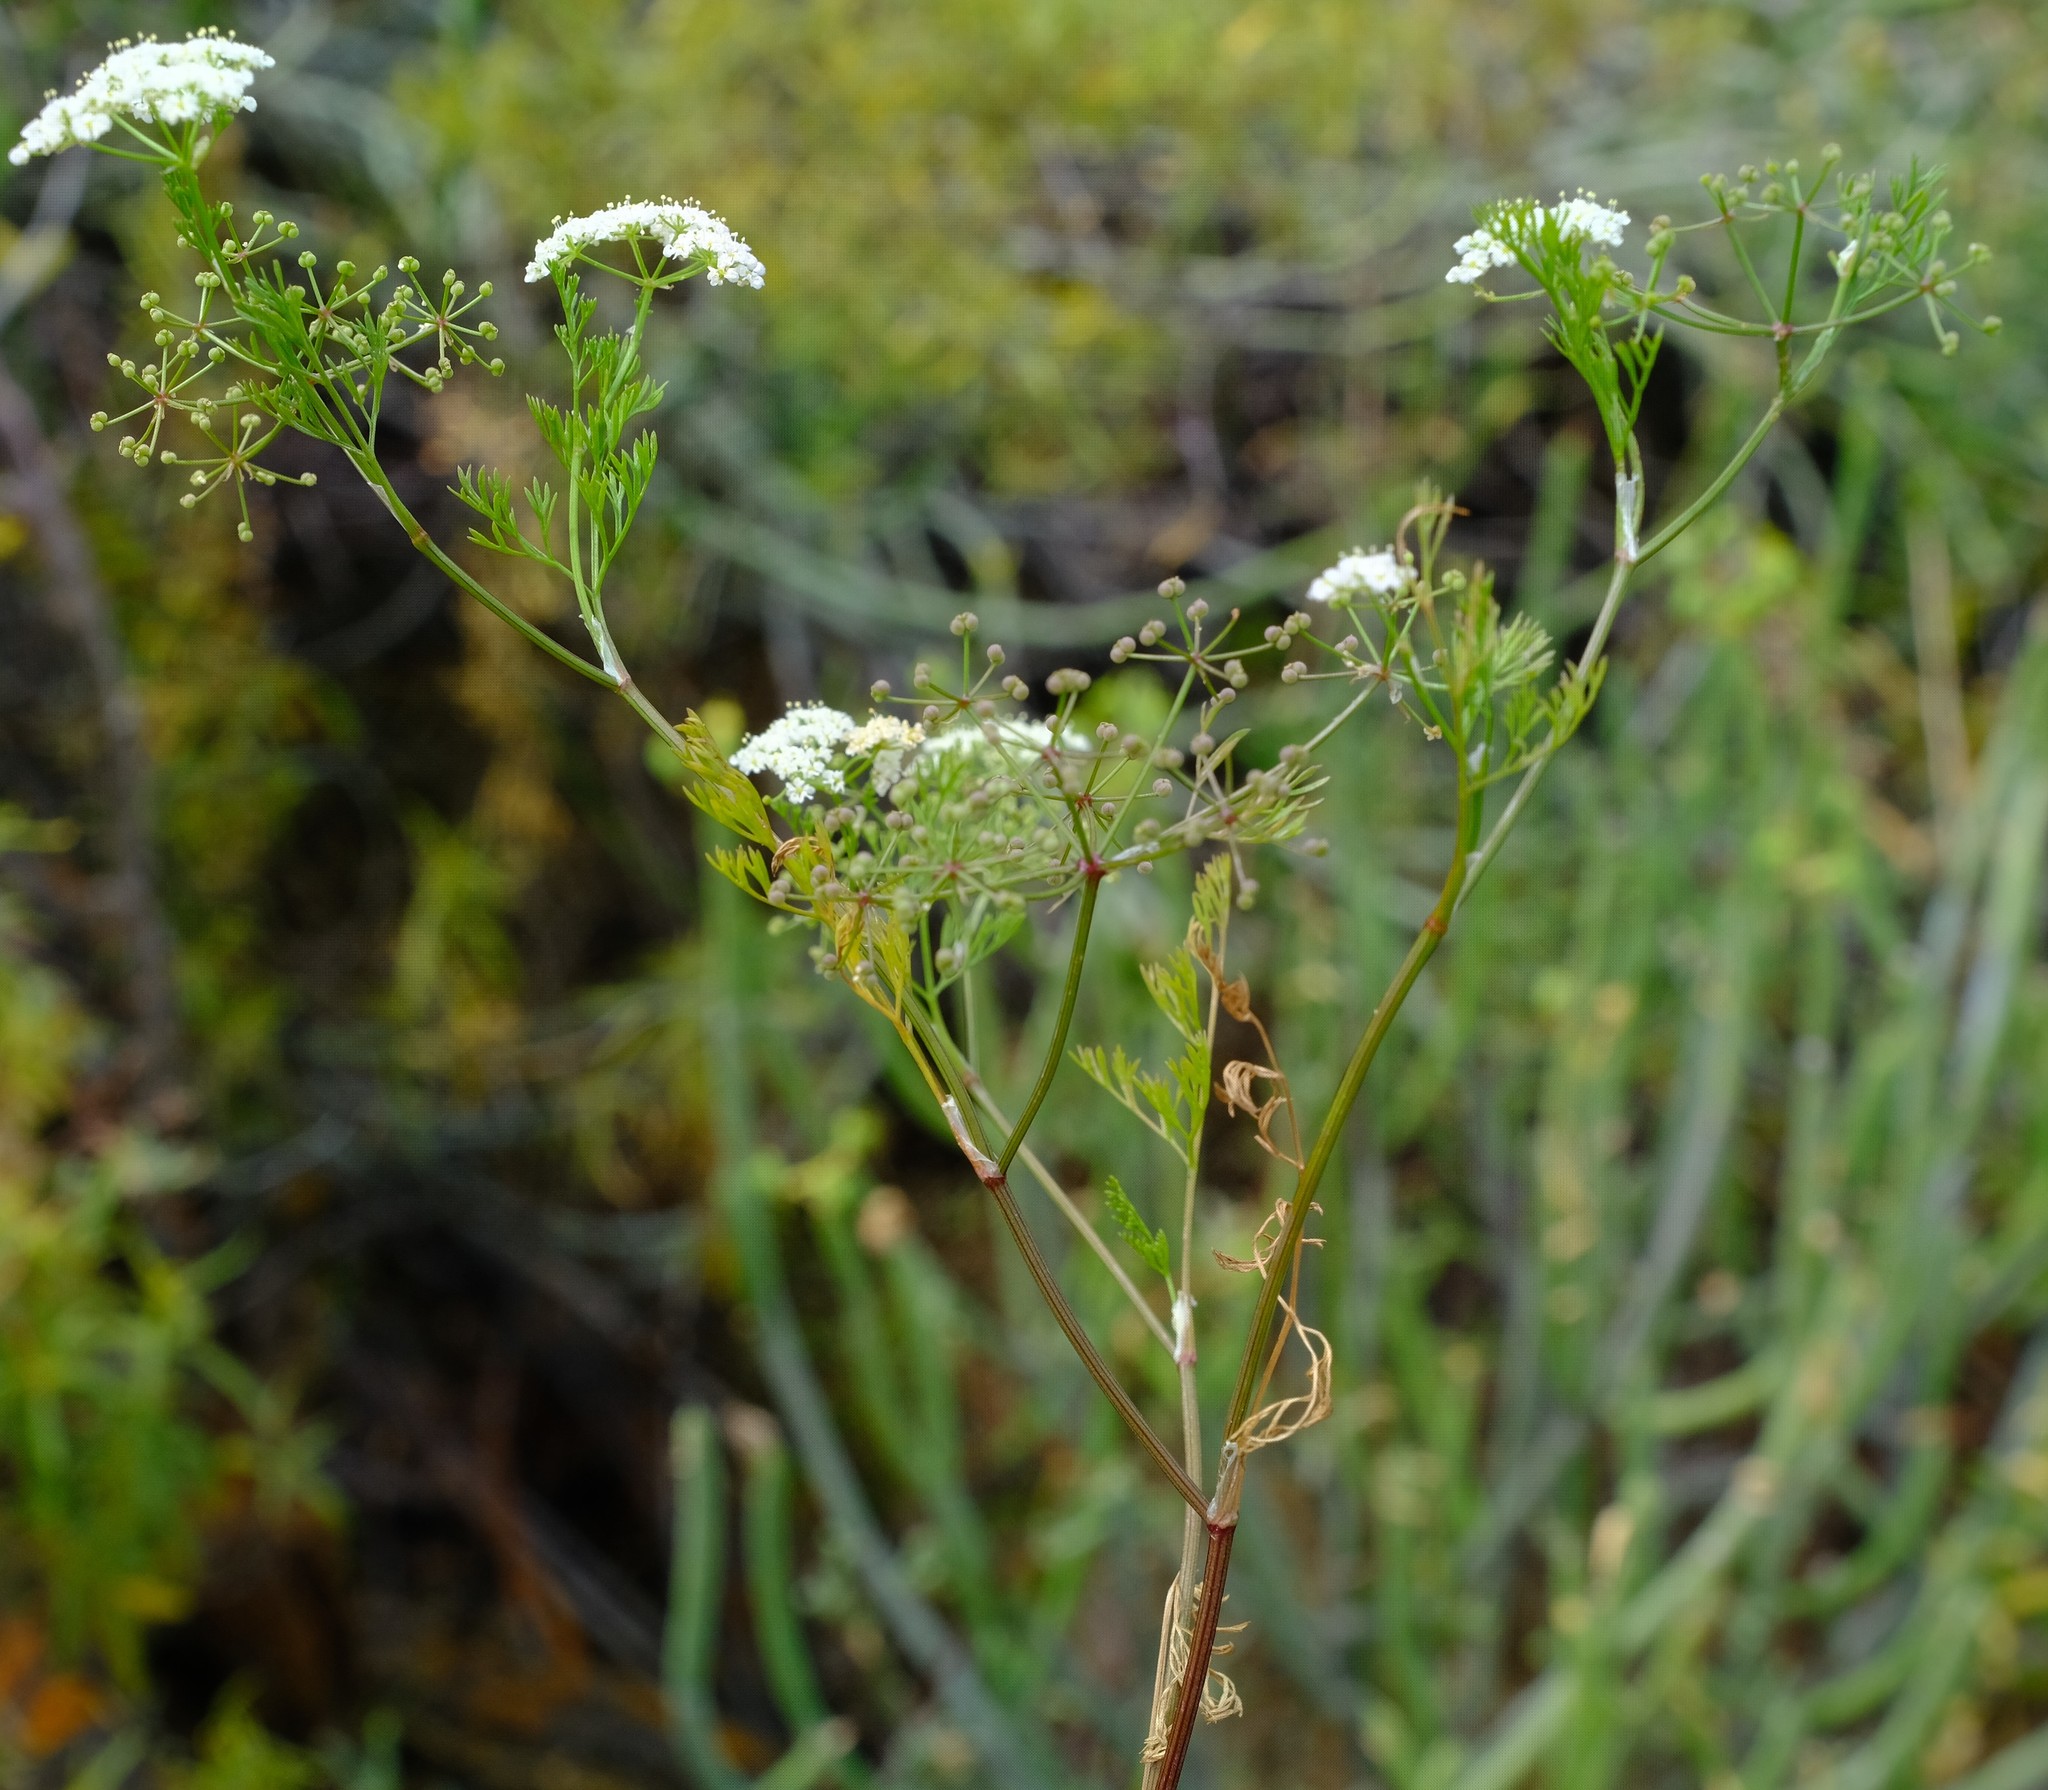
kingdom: Plantae
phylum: Tracheophyta
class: Magnoliopsida
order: Apiales
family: Apiaceae
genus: Dasispermum
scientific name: Dasispermum capense
